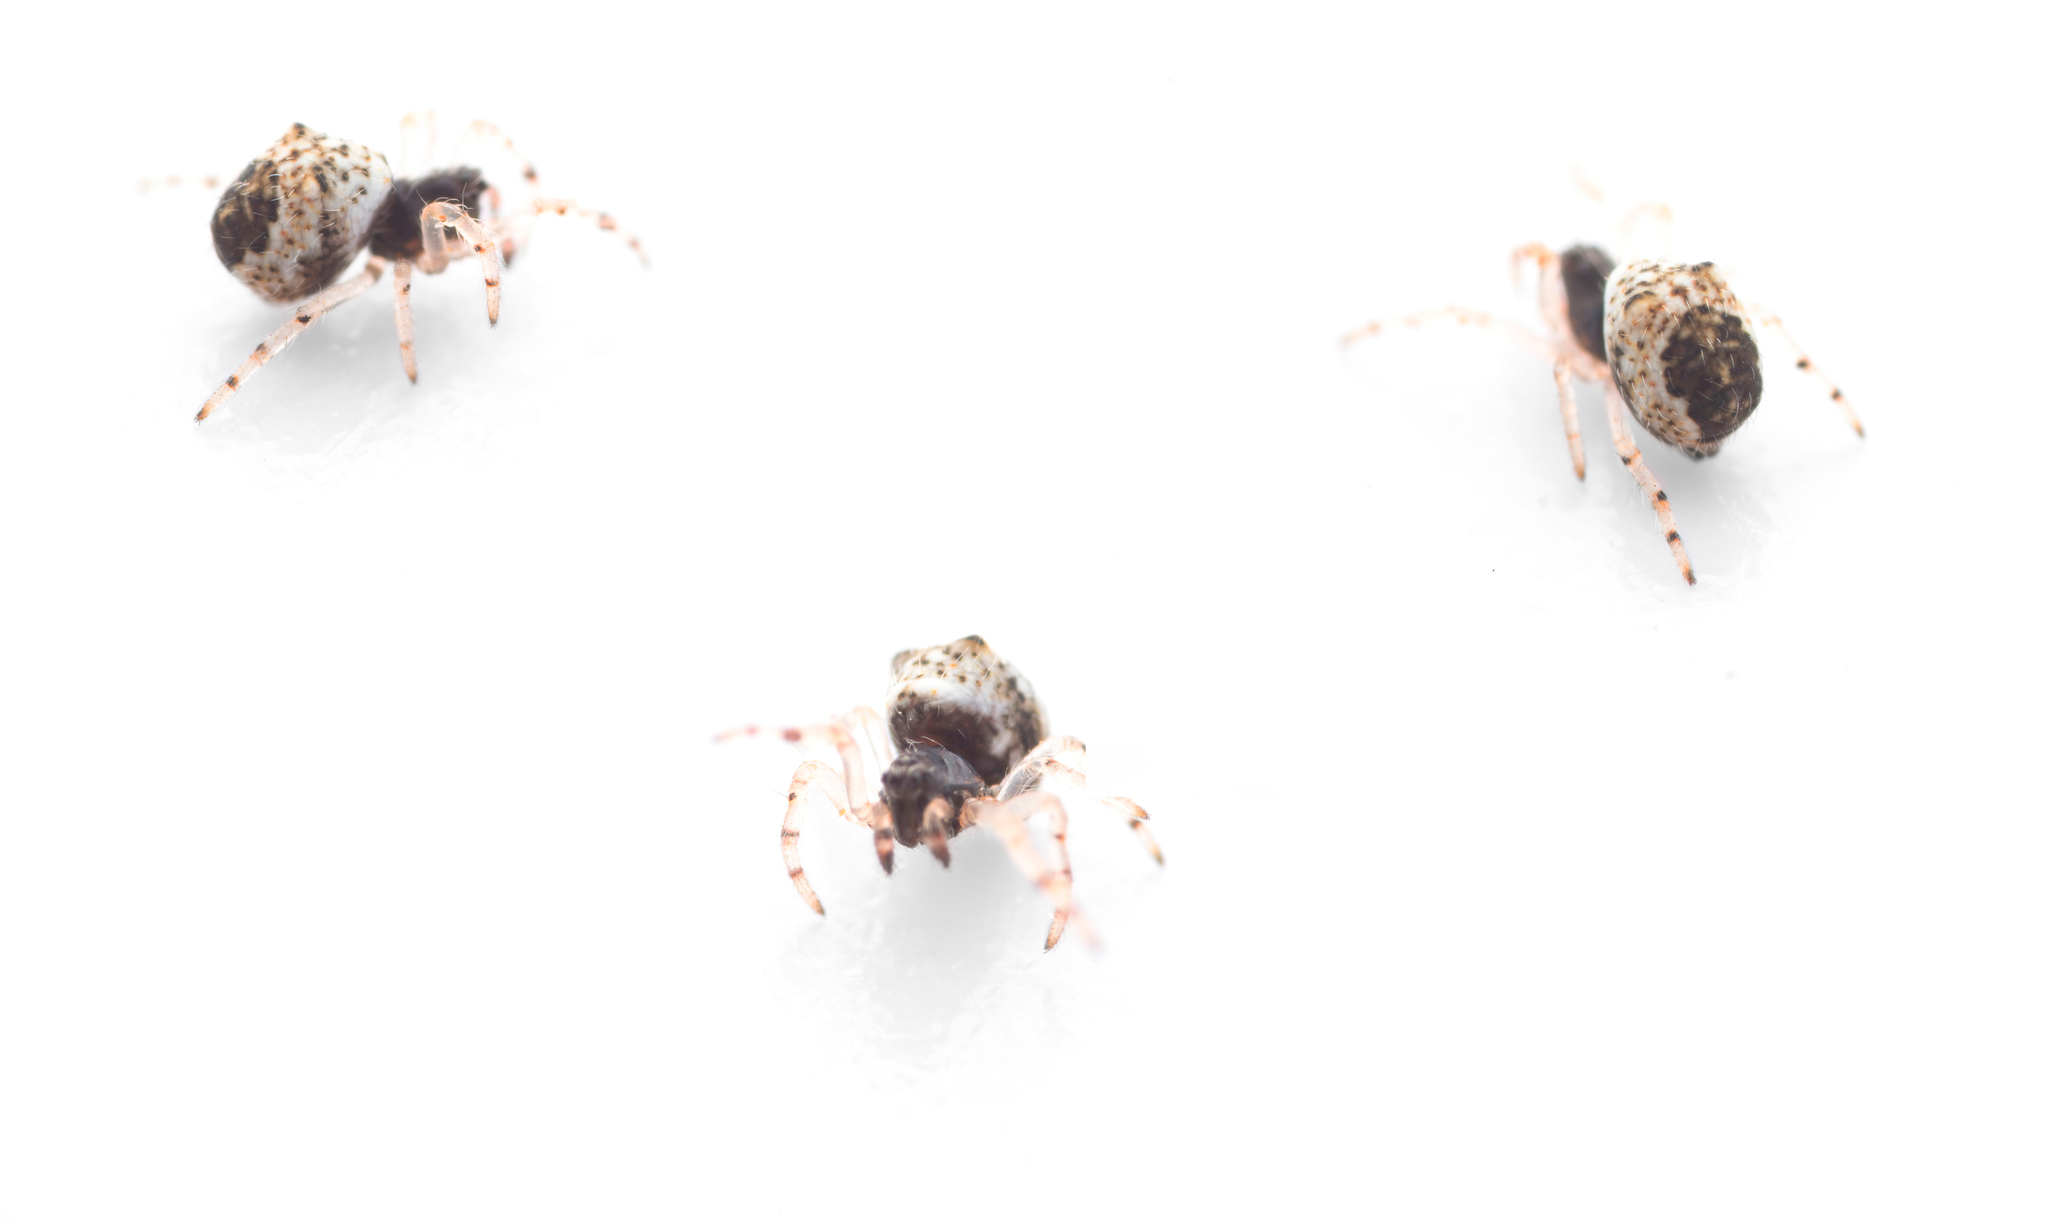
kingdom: Animalia
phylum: Arthropoda
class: Arachnida
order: Araneae
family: Araneidae
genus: Cyclosa
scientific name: Cyclosa groppalii
